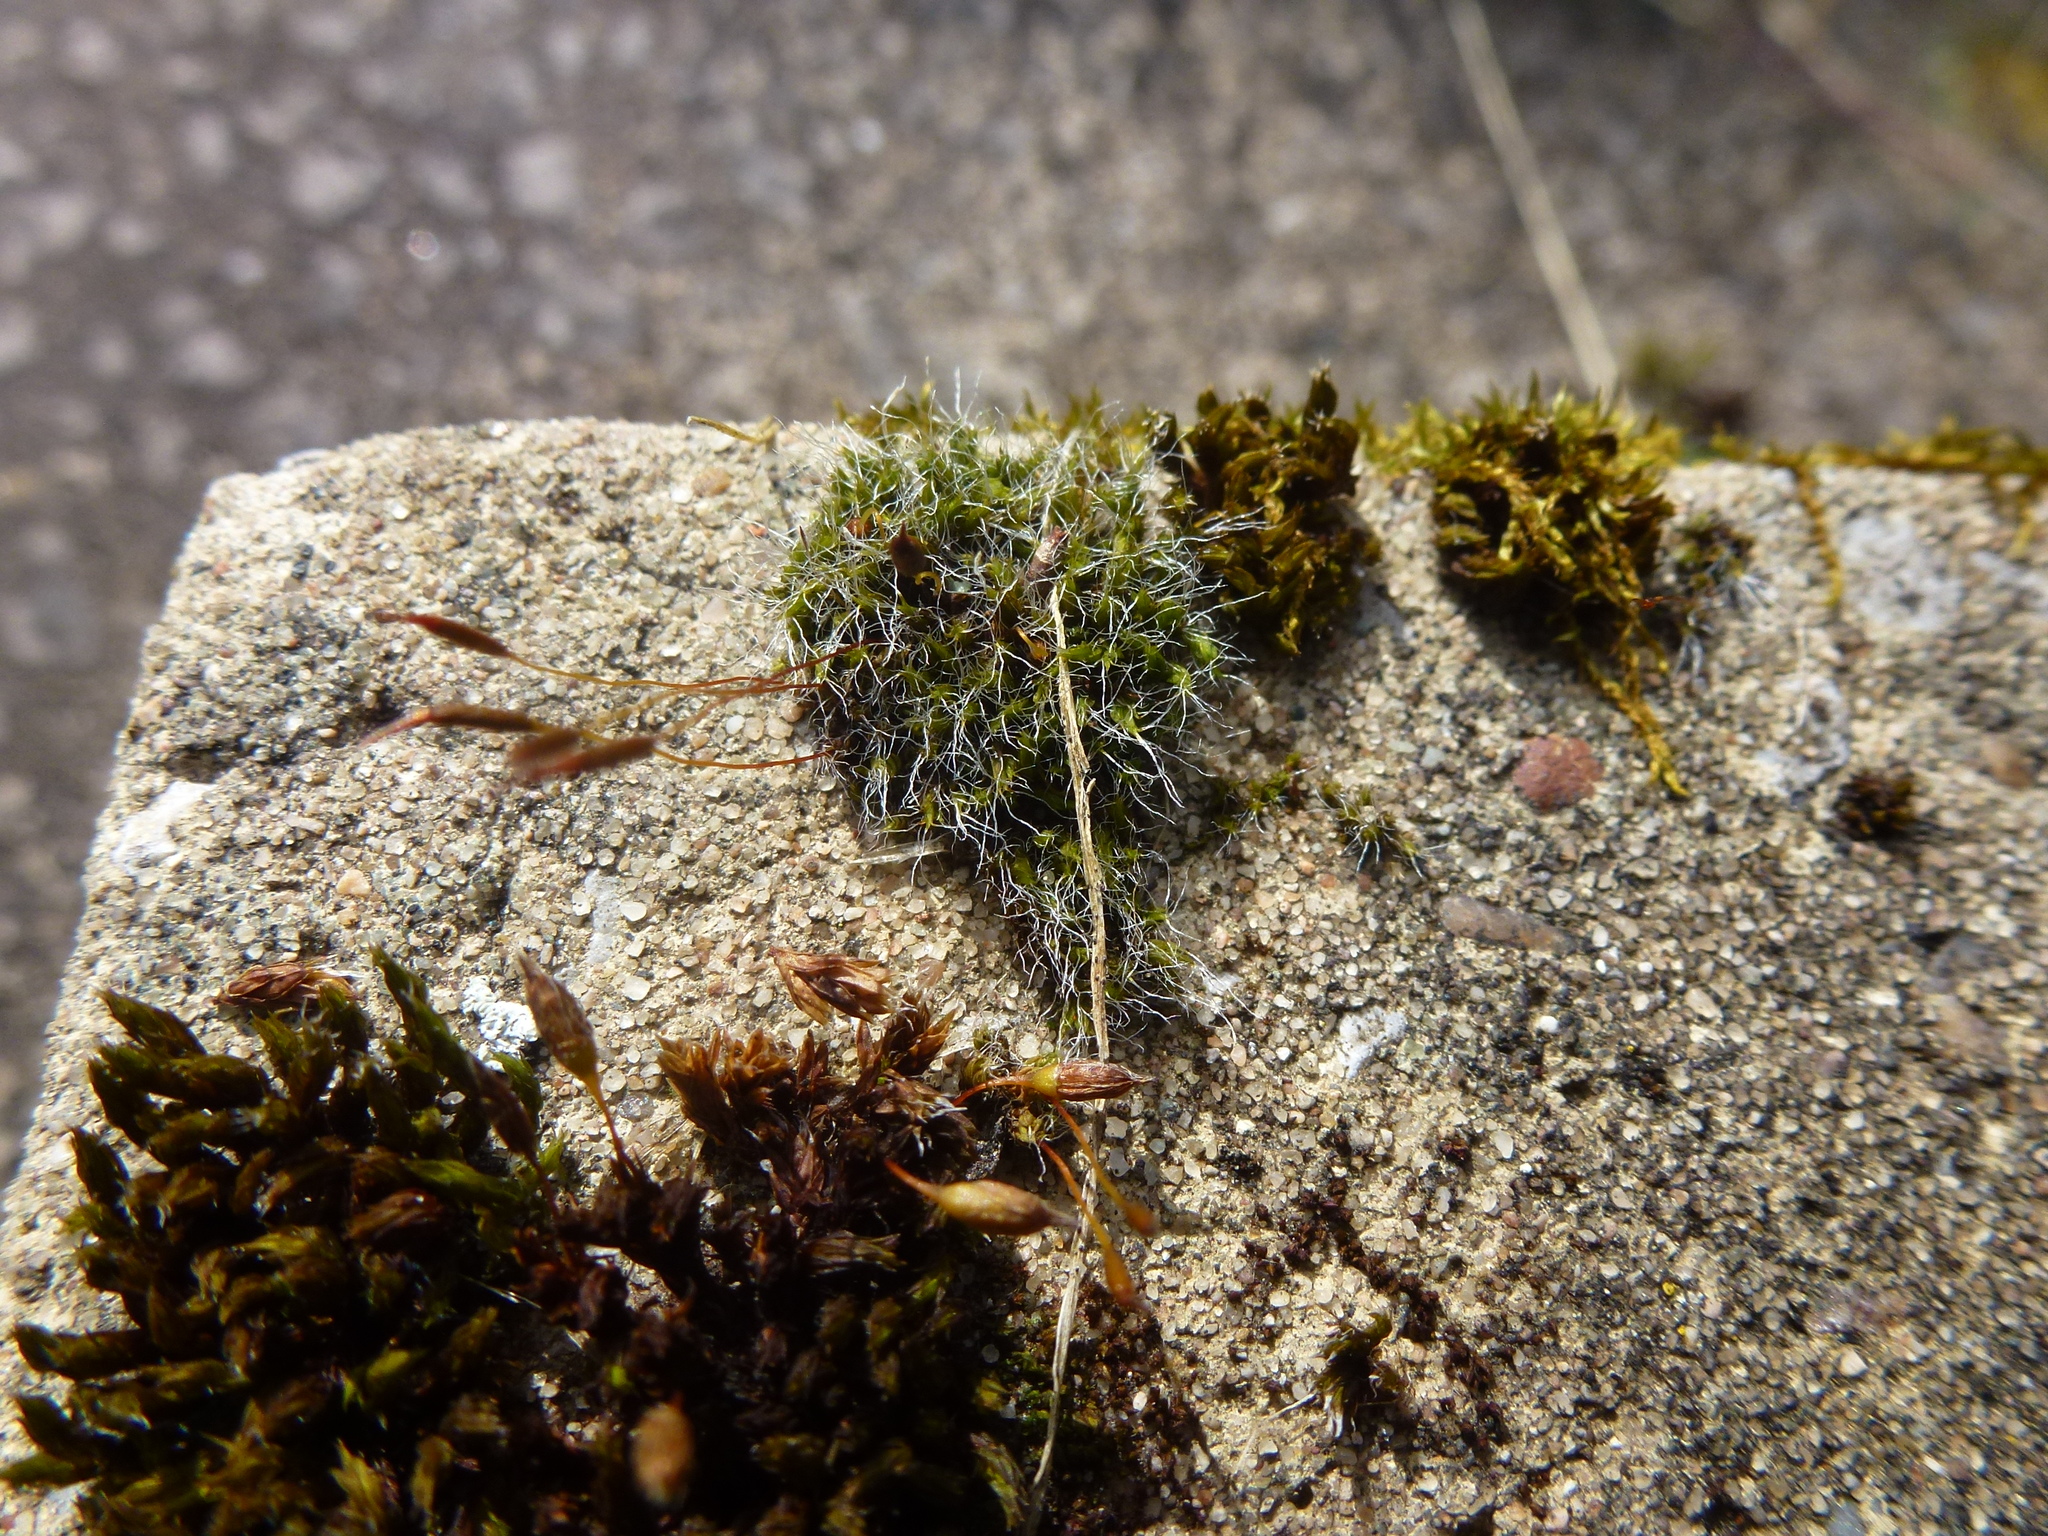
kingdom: Plantae
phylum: Bryophyta
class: Bryopsida
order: Grimmiales
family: Grimmiaceae
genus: Grimmia
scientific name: Grimmia pulvinata
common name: Grey-cushioned grimmia
